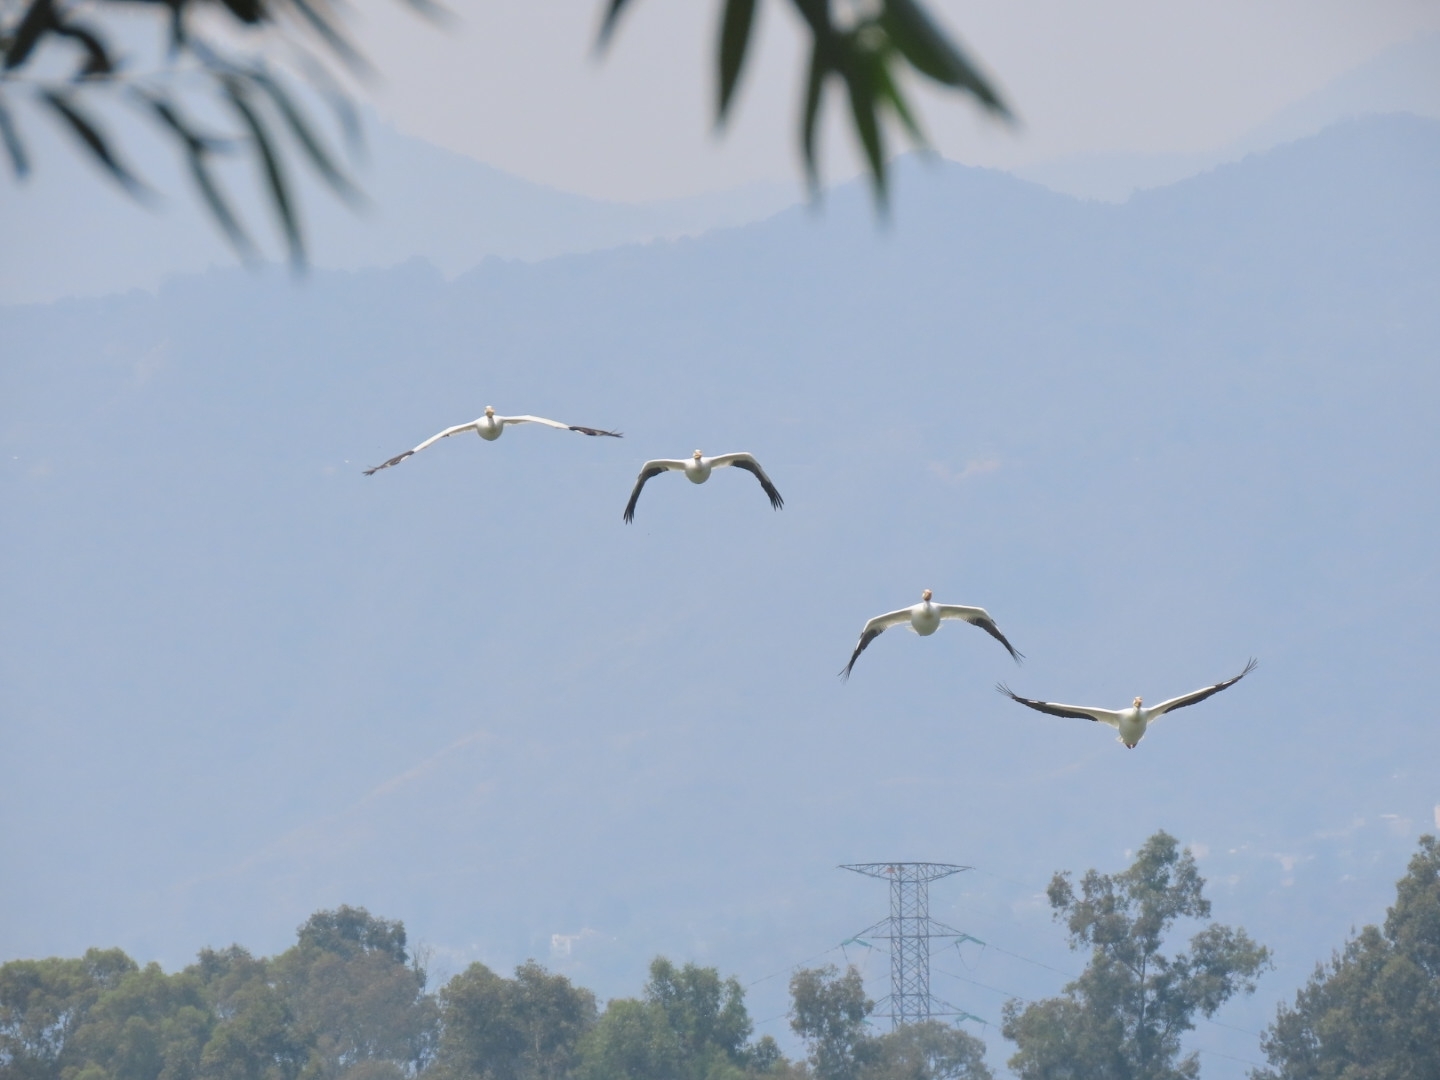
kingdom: Animalia
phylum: Chordata
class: Aves
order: Pelecaniformes
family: Pelecanidae
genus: Pelecanus
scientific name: Pelecanus erythrorhynchos
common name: American white pelican
